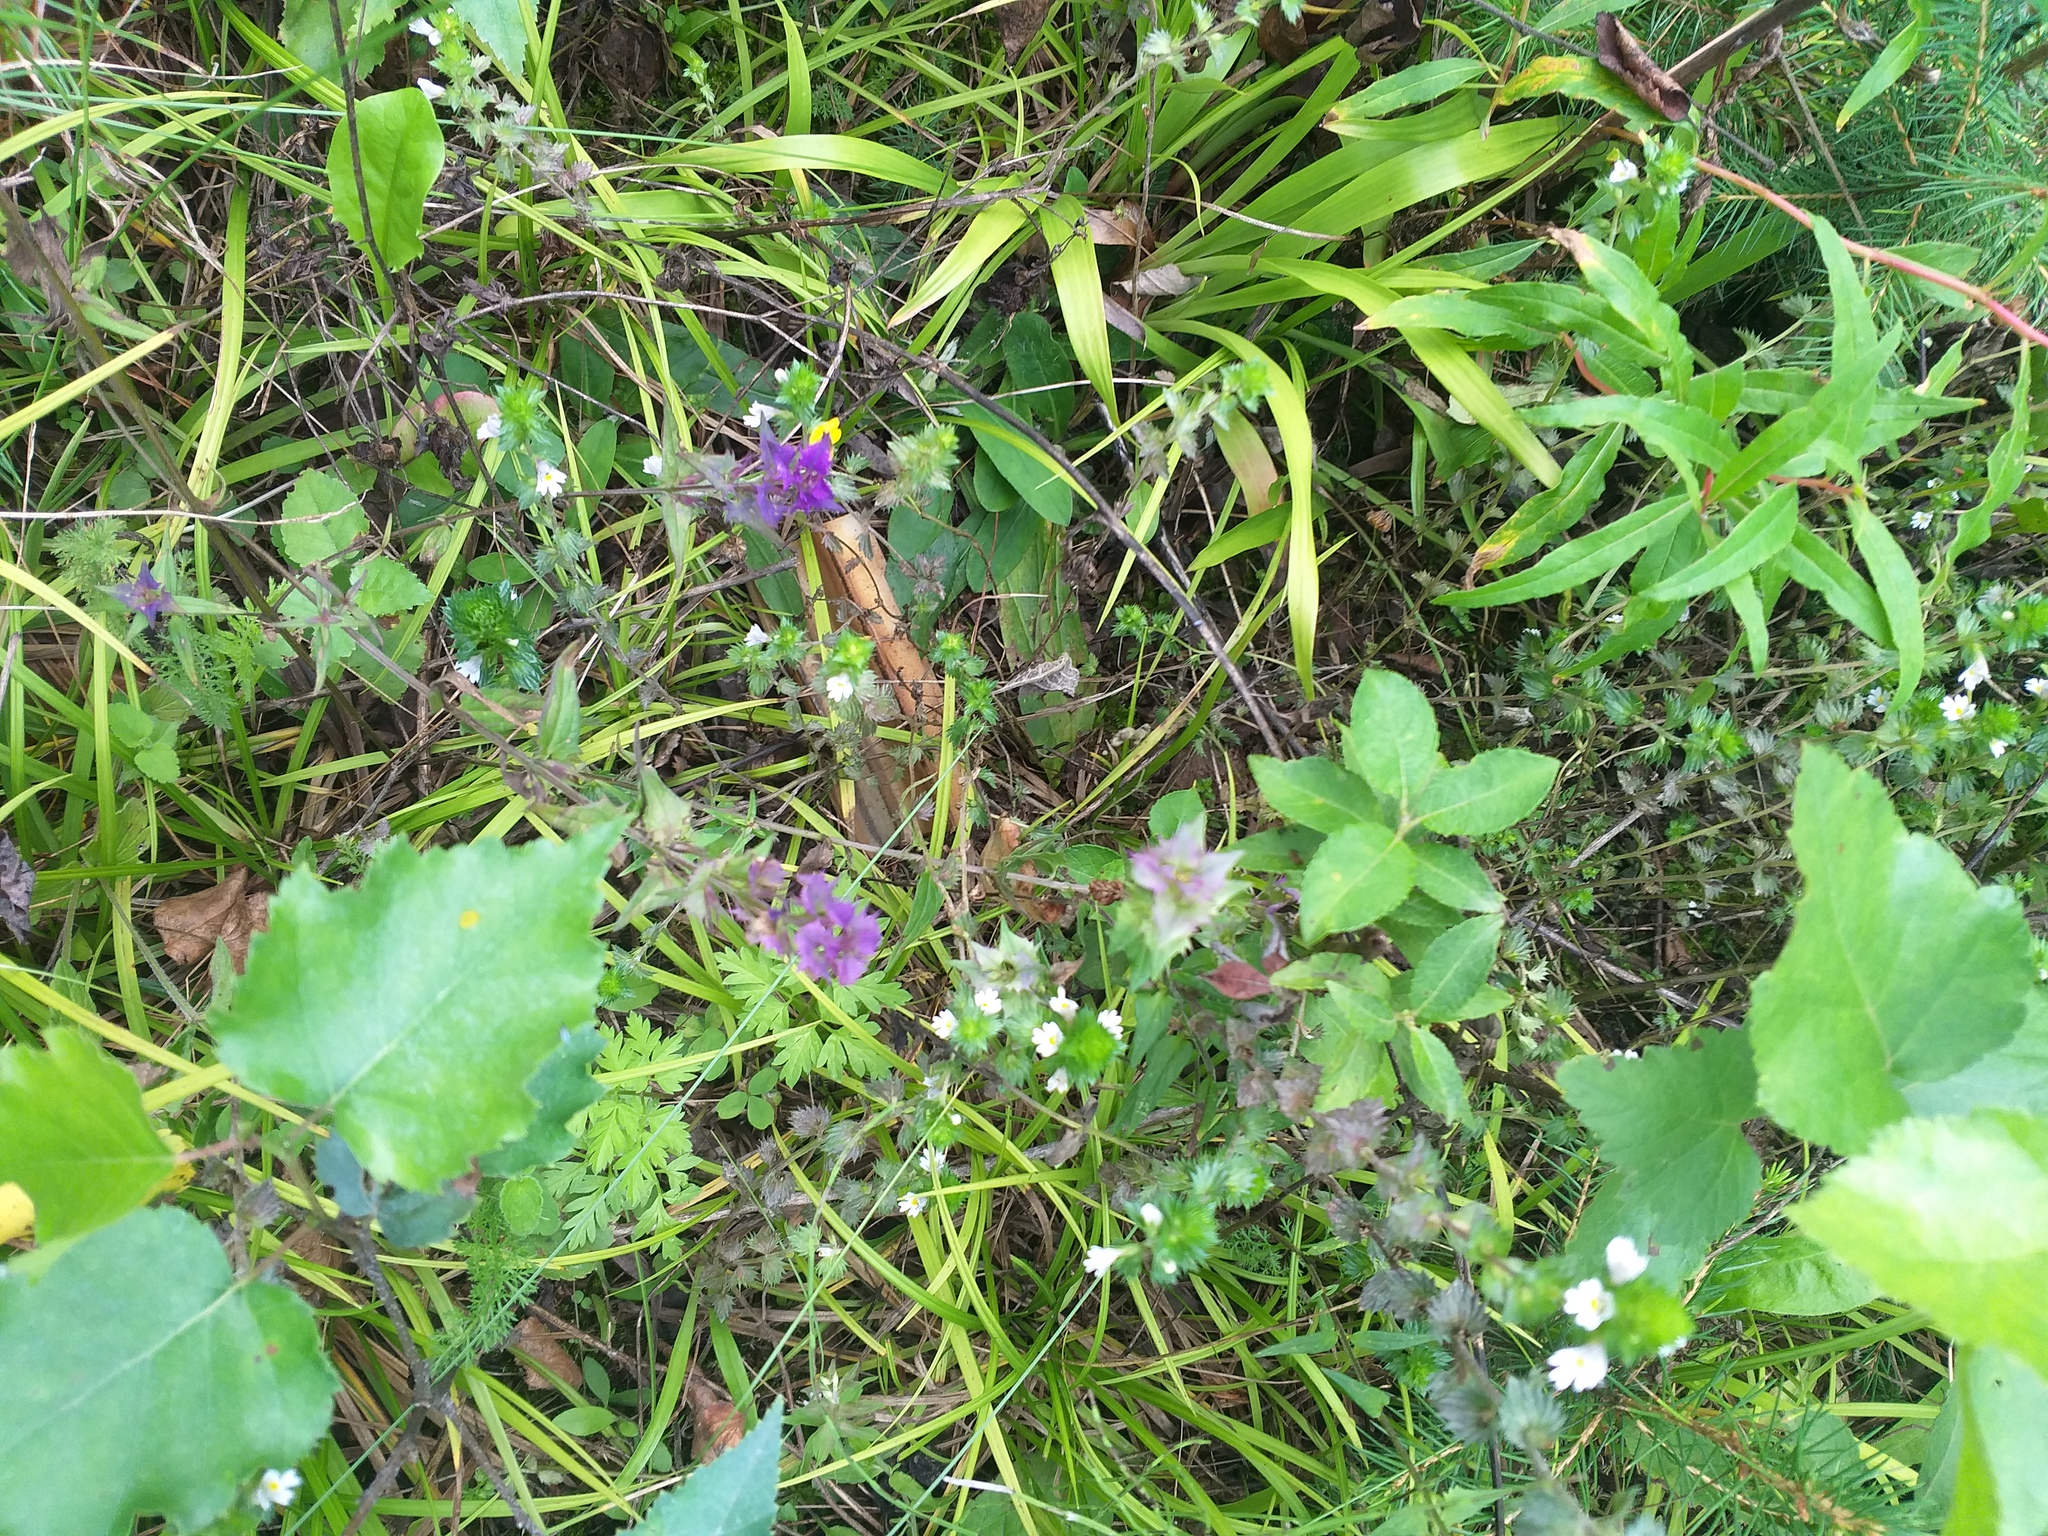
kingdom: Plantae
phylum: Tracheophyta
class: Magnoliopsida
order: Lamiales
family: Orobanchaceae
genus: Melampyrum
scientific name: Melampyrum nemorosum
